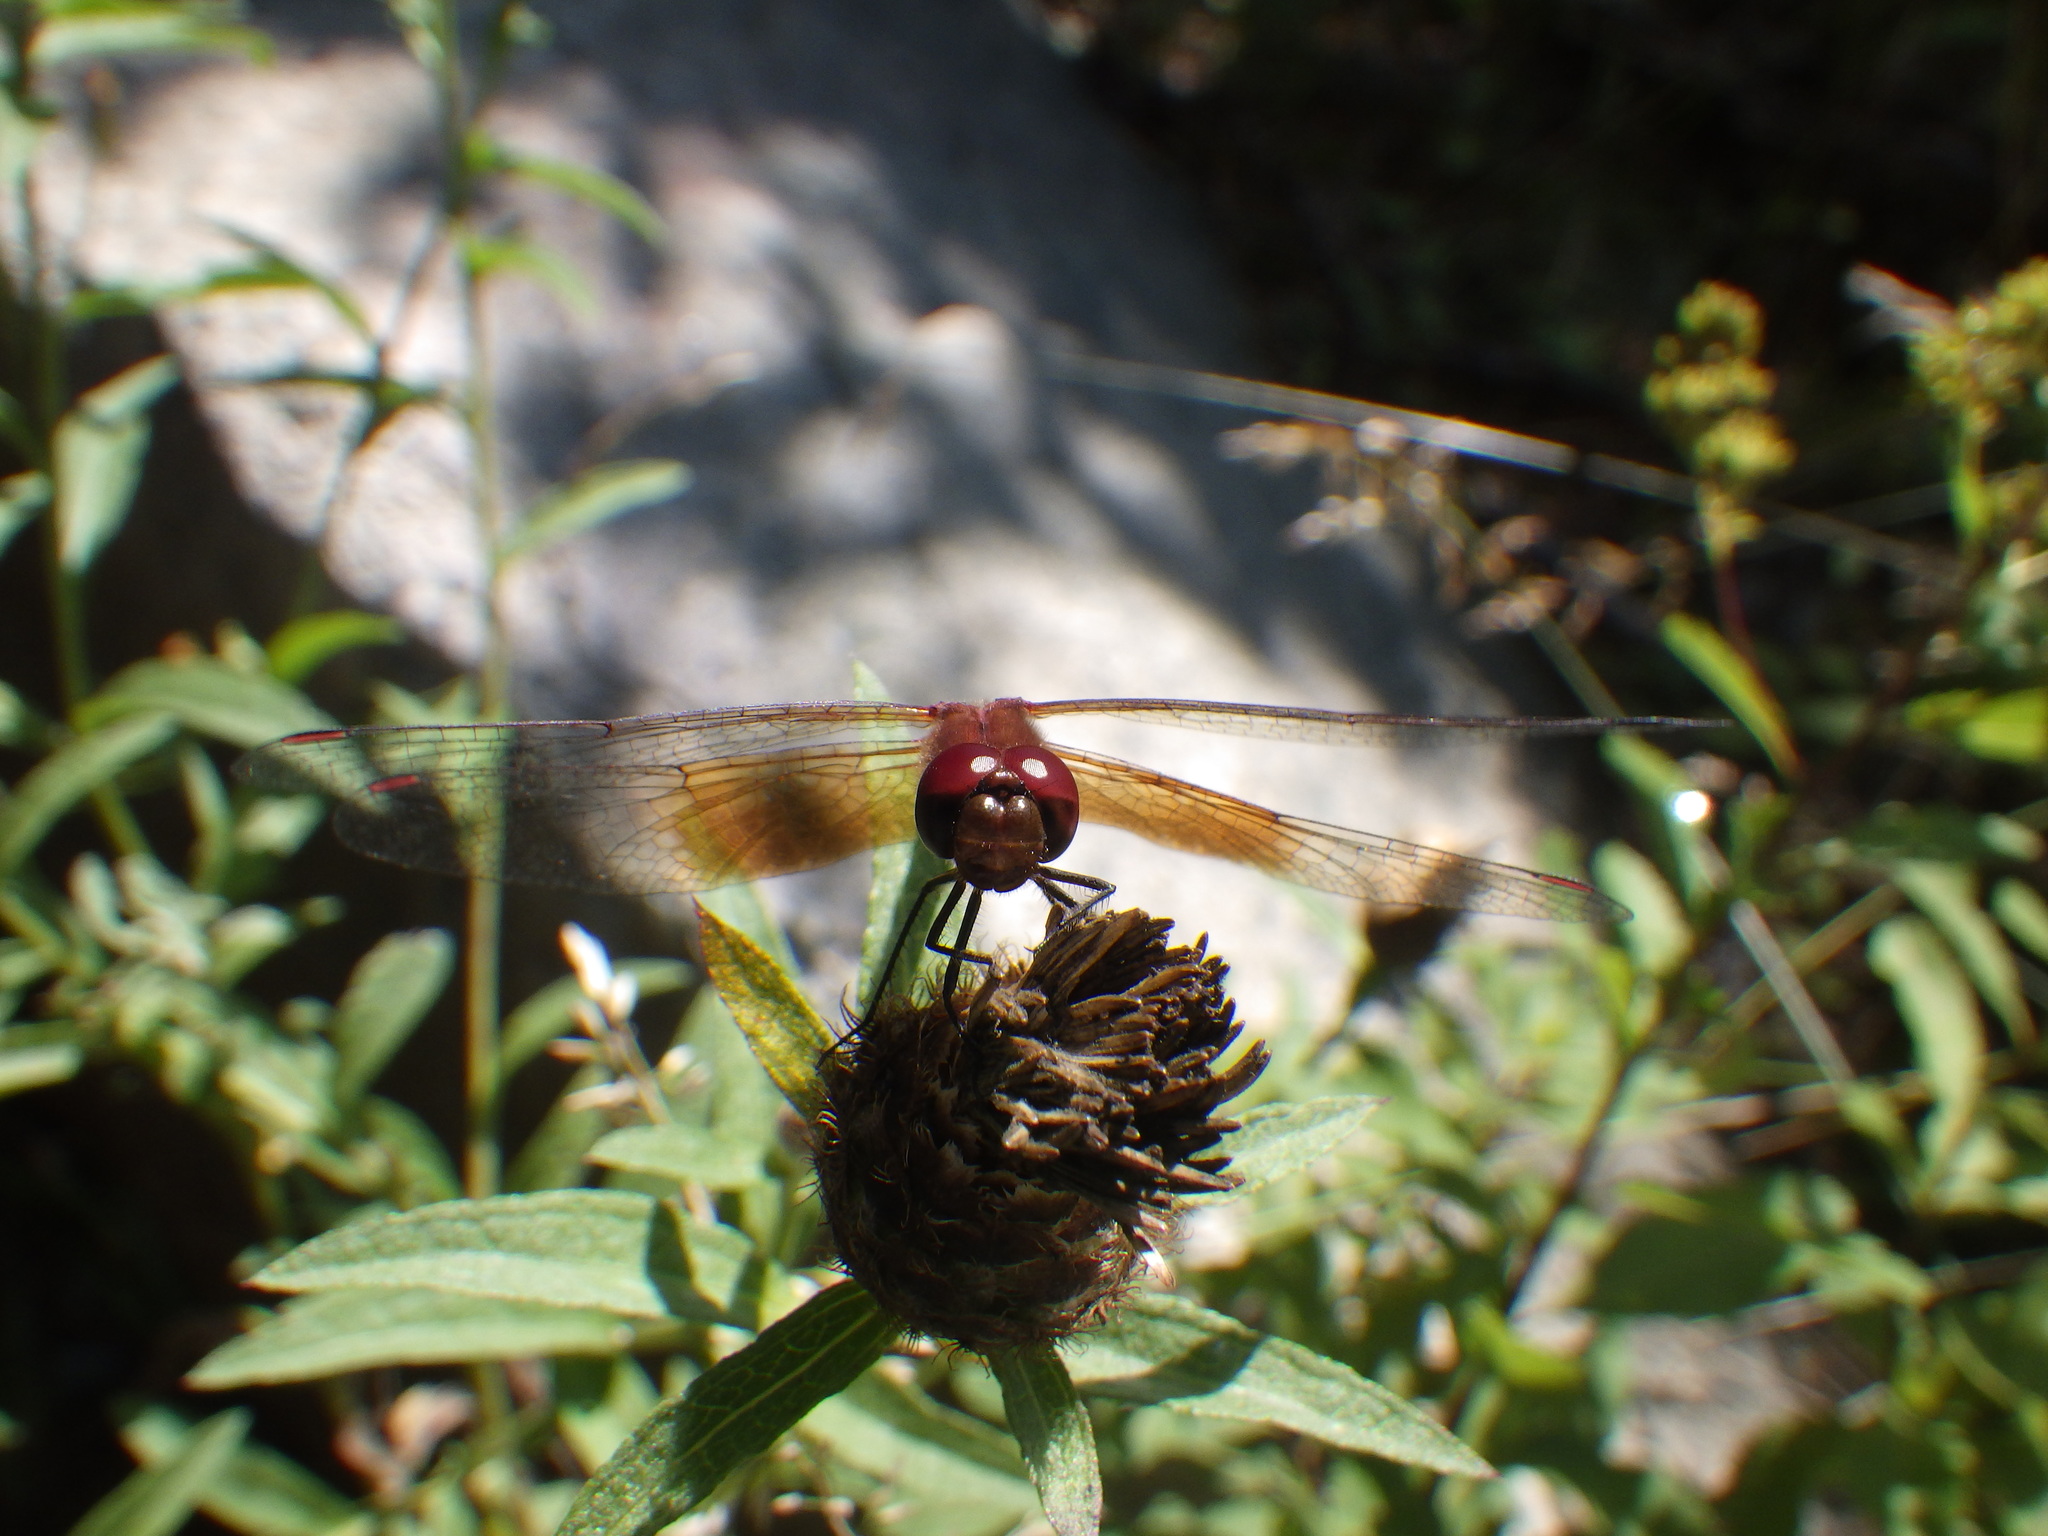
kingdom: Animalia
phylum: Arthropoda
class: Insecta
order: Odonata
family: Libellulidae
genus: Sympetrum
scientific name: Sympetrum semicinctum
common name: Band-winged meadowhawk
